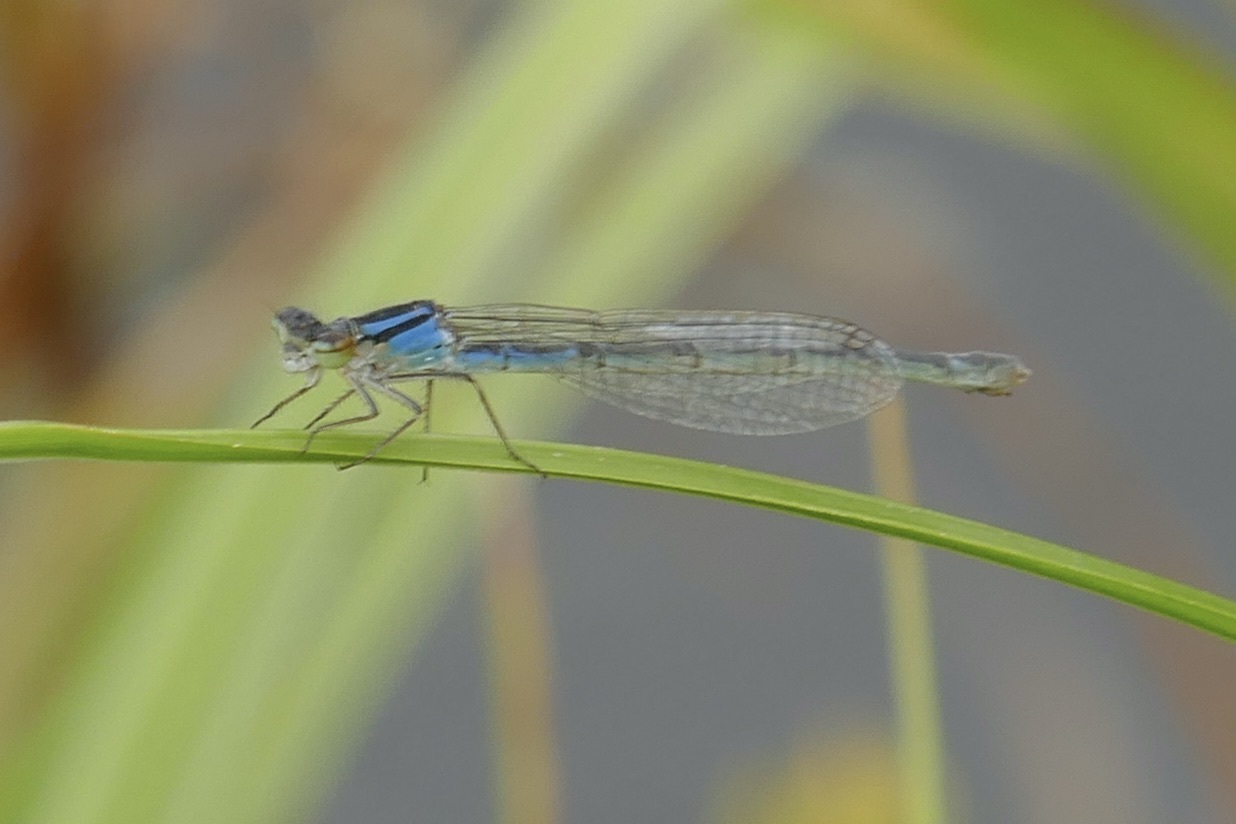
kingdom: Animalia
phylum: Arthropoda
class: Insecta
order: Odonata
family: Coenagrionidae
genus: Enallagma
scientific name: Enallagma cyathigerum
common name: Common blue damselfly
